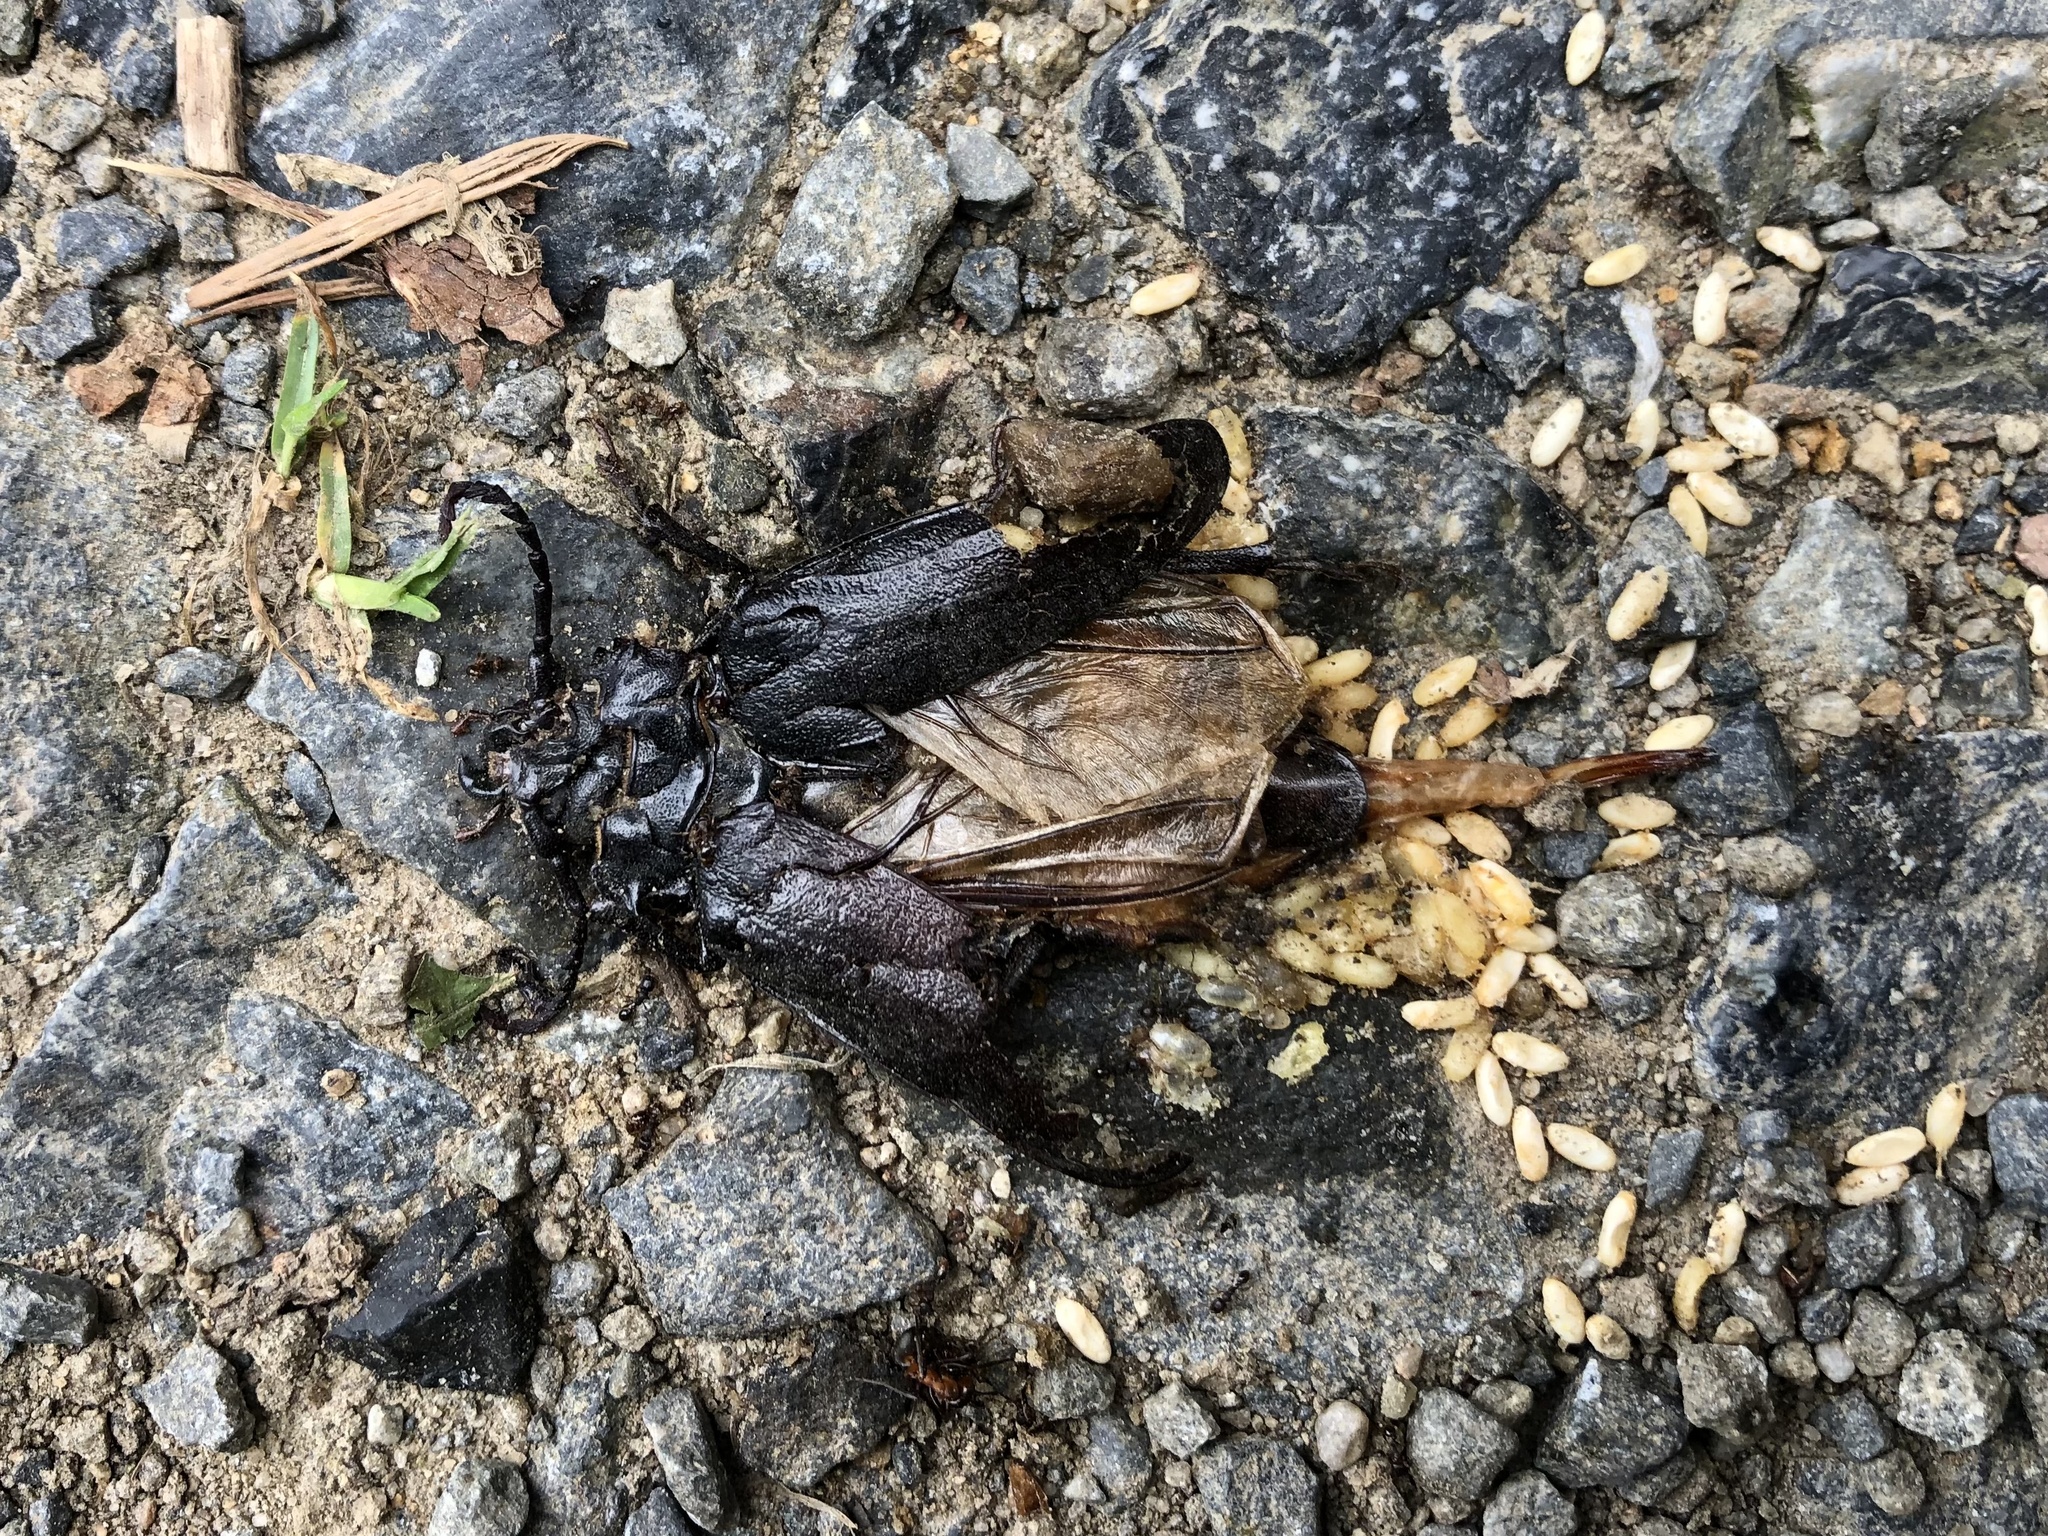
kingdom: Animalia
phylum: Arthropoda
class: Insecta
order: Coleoptera
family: Cerambycidae
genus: Prionus
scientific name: Prionus coriarius
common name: Tanner beetle
